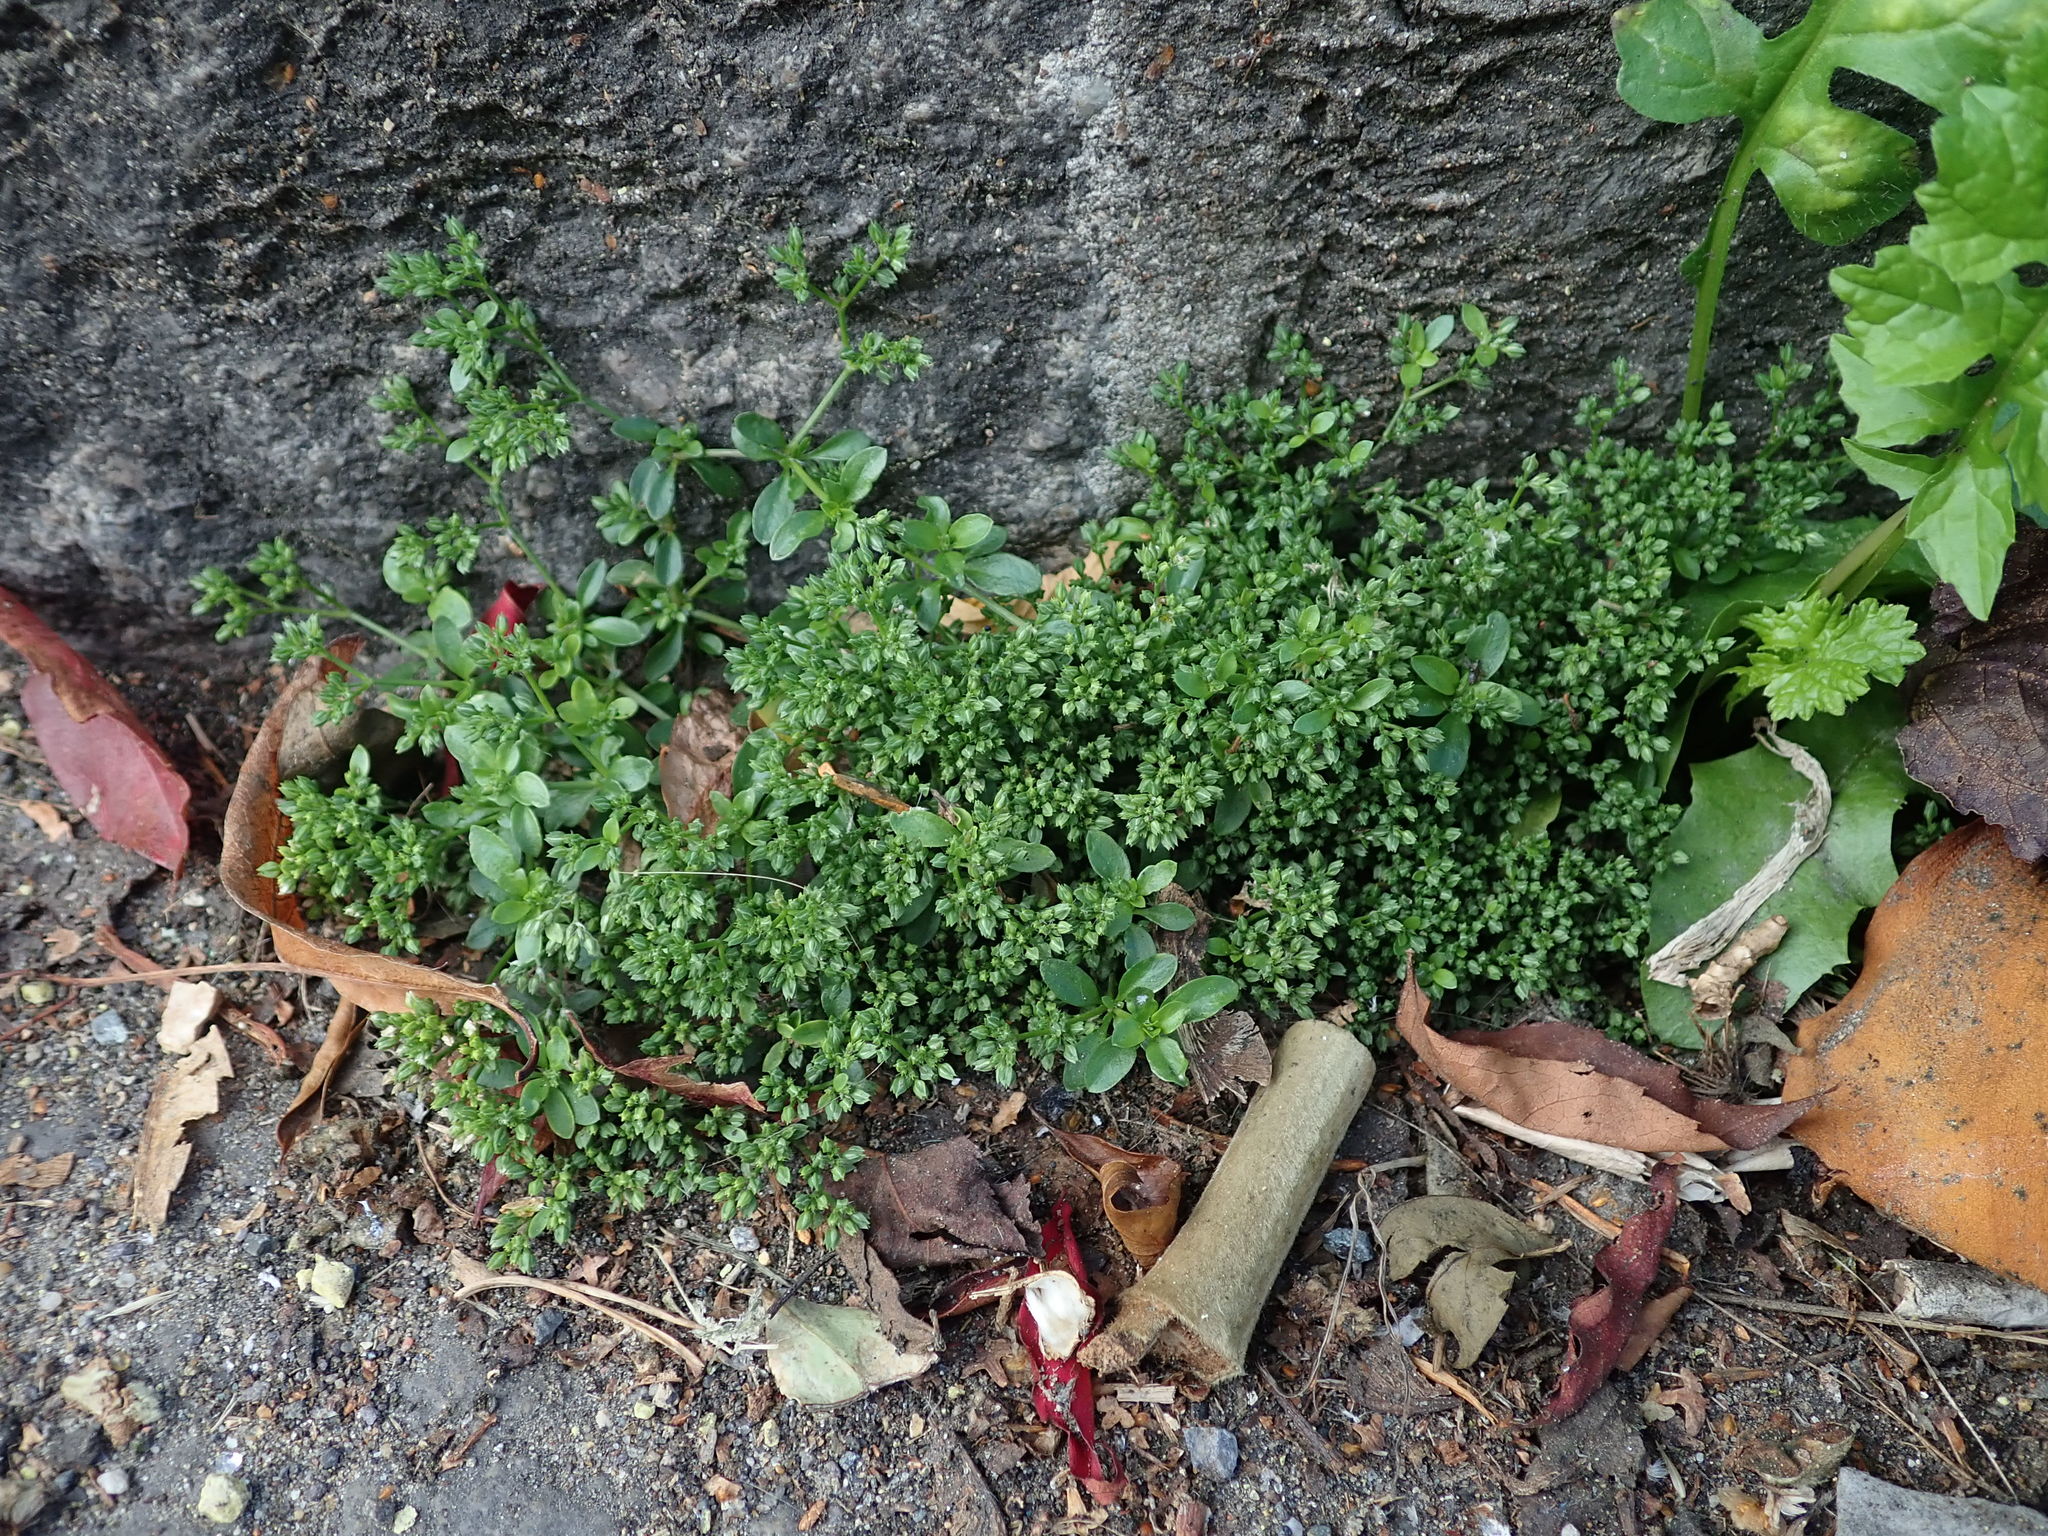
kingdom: Plantae
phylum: Tracheophyta
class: Magnoliopsida
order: Caryophyllales
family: Caryophyllaceae
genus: Polycarpon
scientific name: Polycarpon tetraphyllum
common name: Four-leaved all-seed
